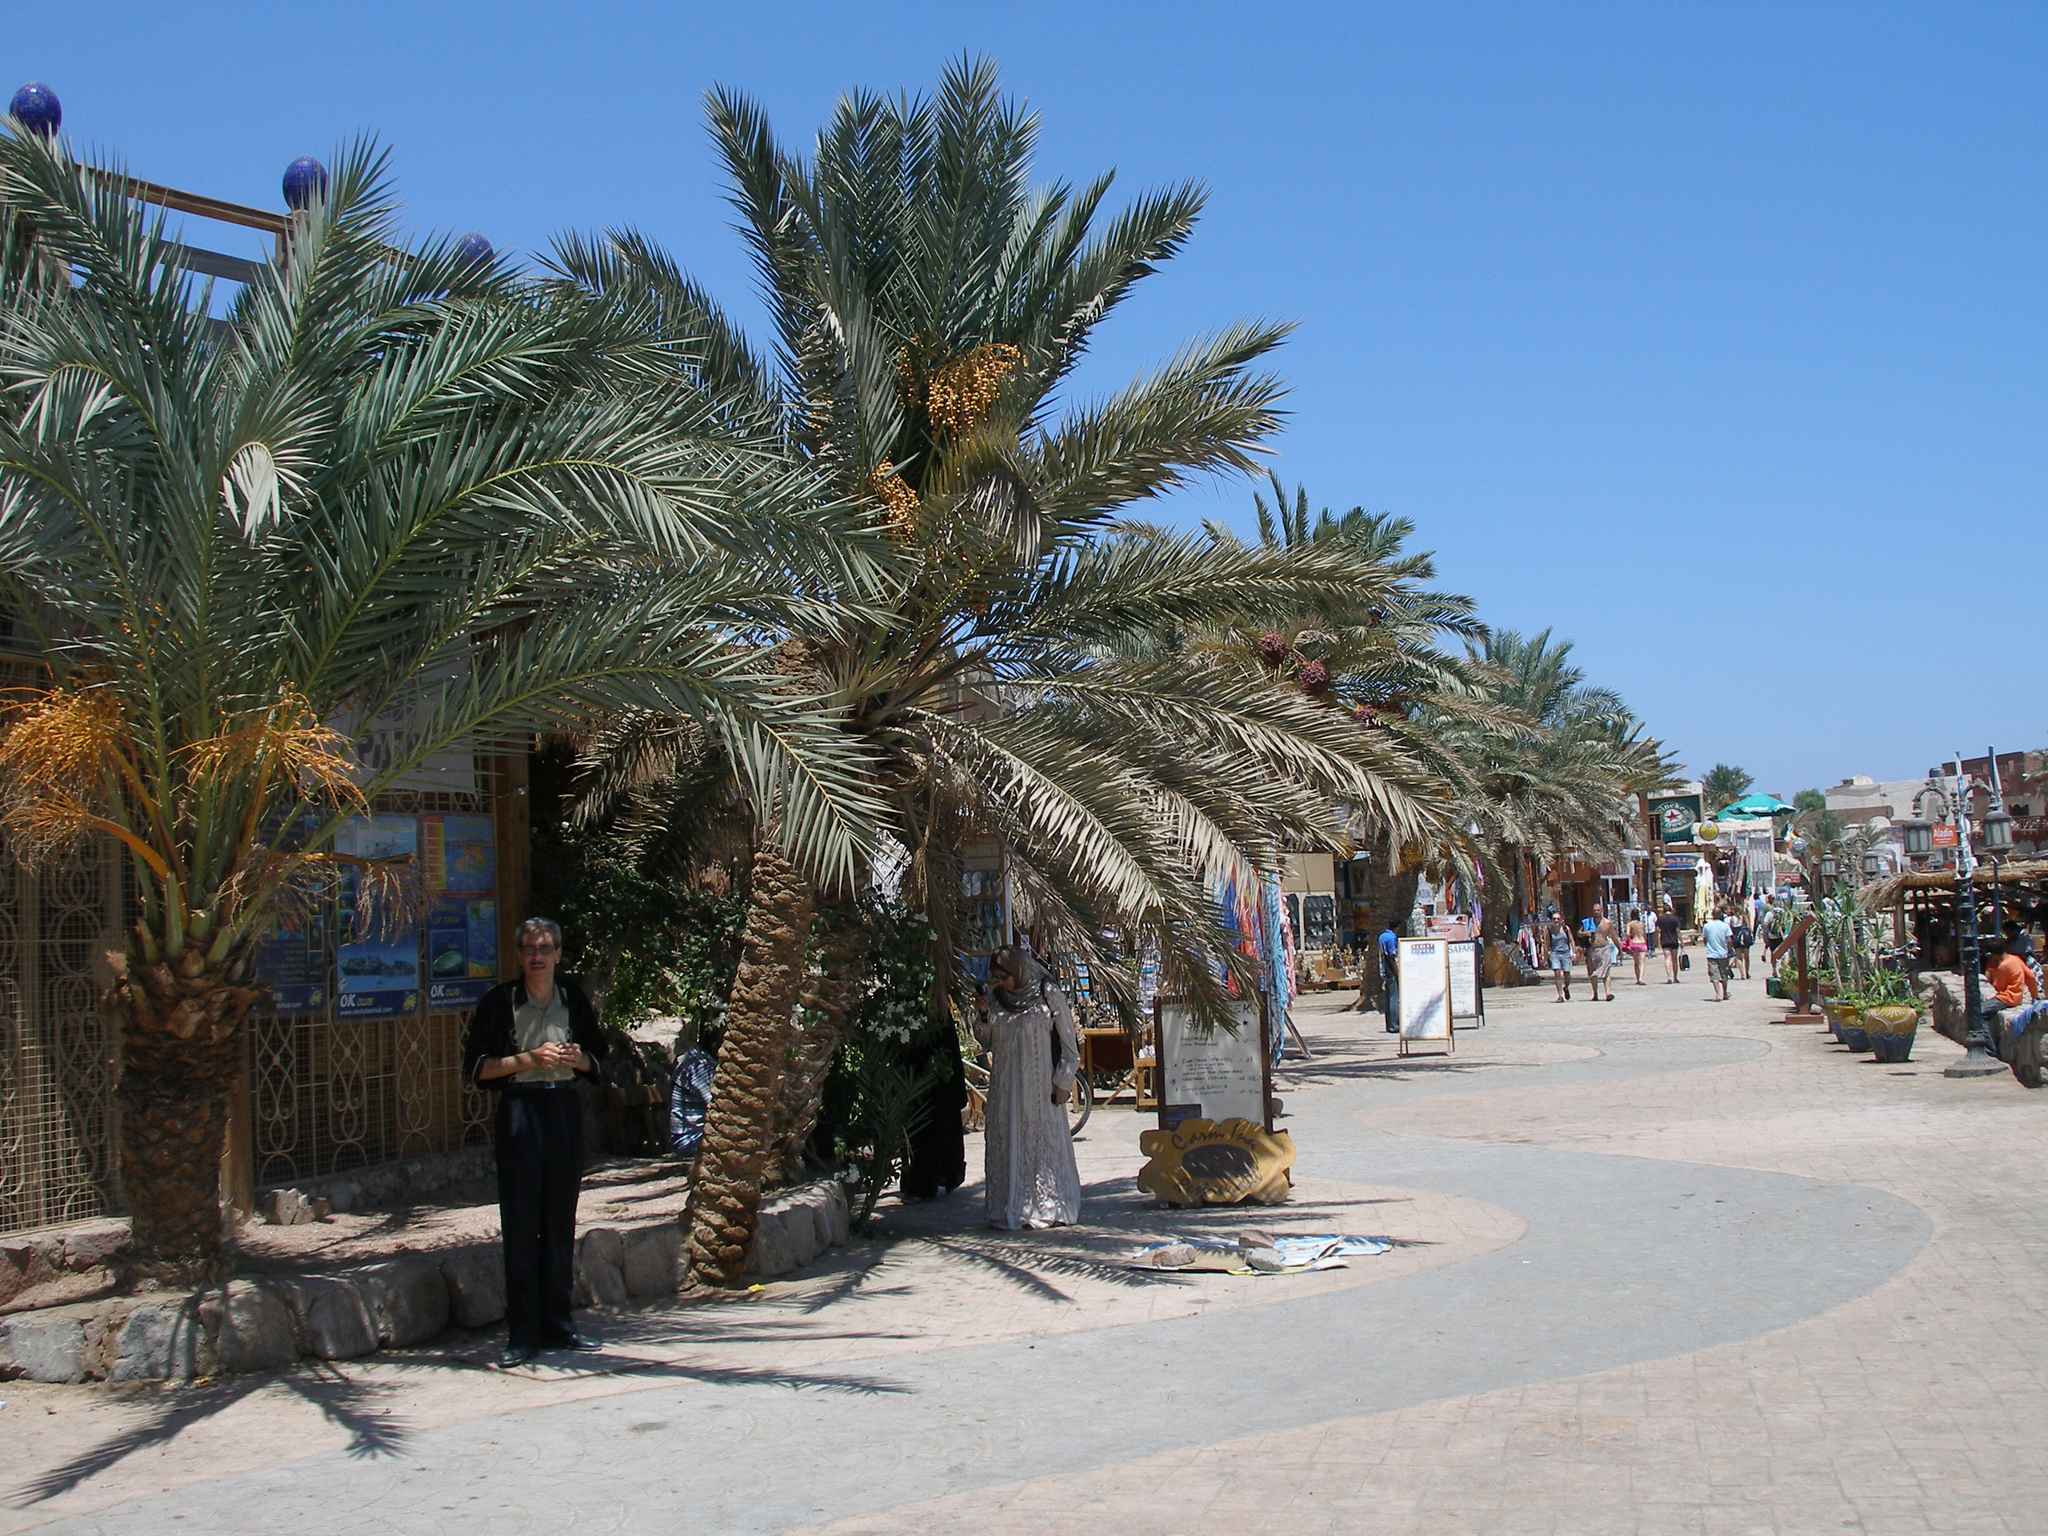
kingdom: Plantae
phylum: Tracheophyta
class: Liliopsida
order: Arecales
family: Arecaceae
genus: Phoenix
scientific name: Phoenix dactylifera
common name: Date palm
